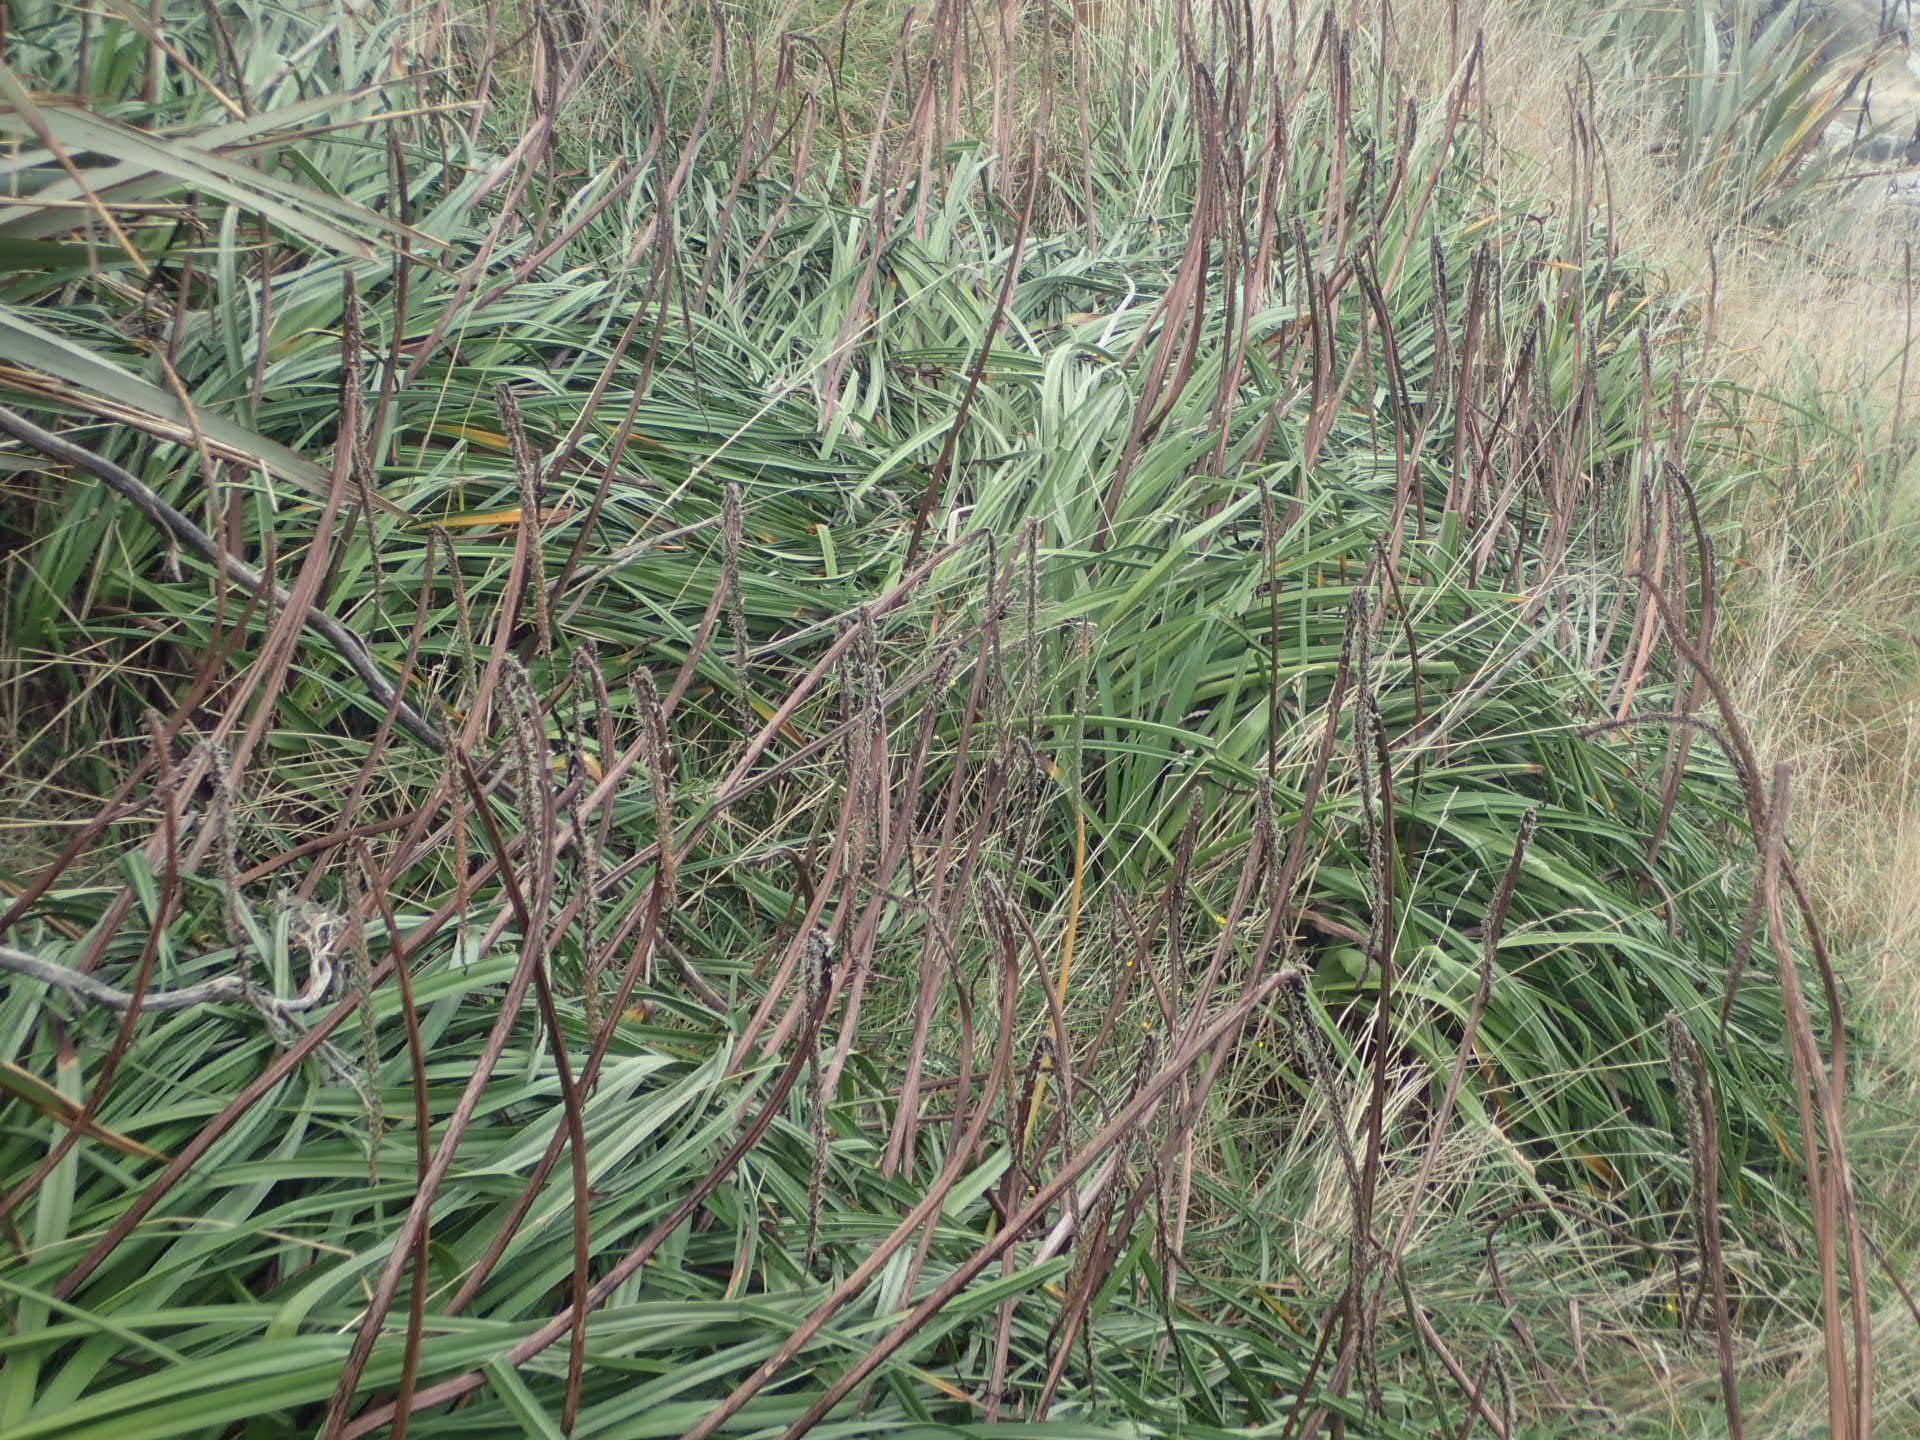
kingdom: Plantae
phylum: Tracheophyta
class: Liliopsida
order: Asparagales
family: Asphodelaceae
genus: Kniphofia
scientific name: Kniphofia uvaria
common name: Red-hot-poker
